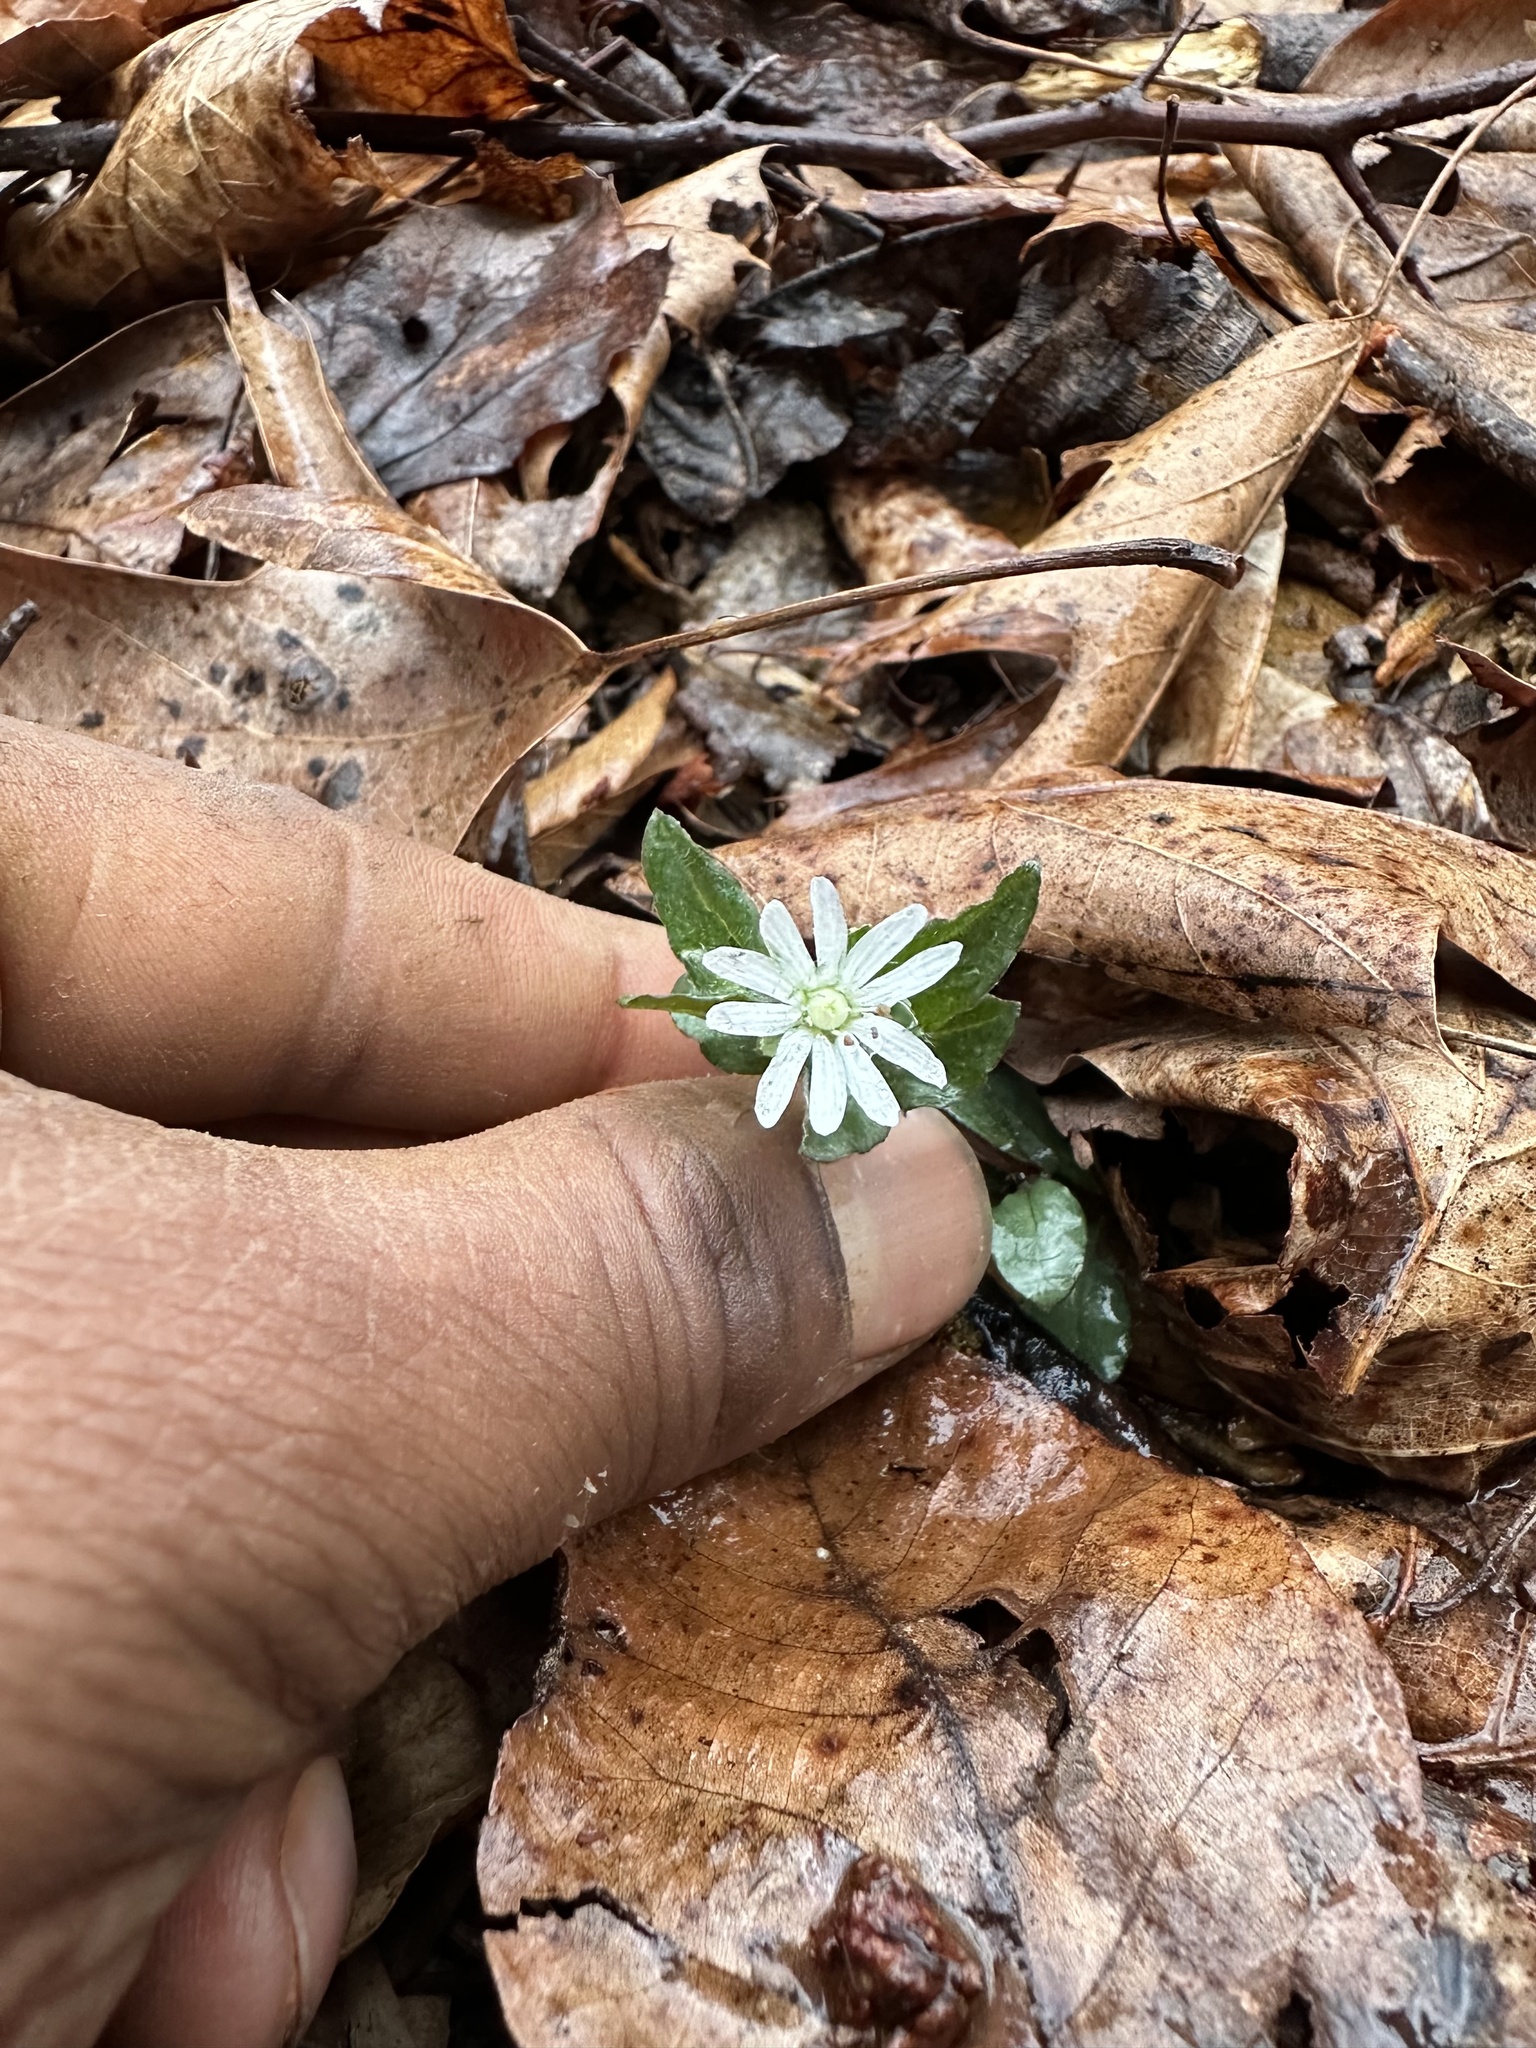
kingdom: Plantae
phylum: Tracheophyta
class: Magnoliopsida
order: Caryophyllales
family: Caryophyllaceae
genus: Stellaria
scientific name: Stellaria pubera
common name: Star chickweed
